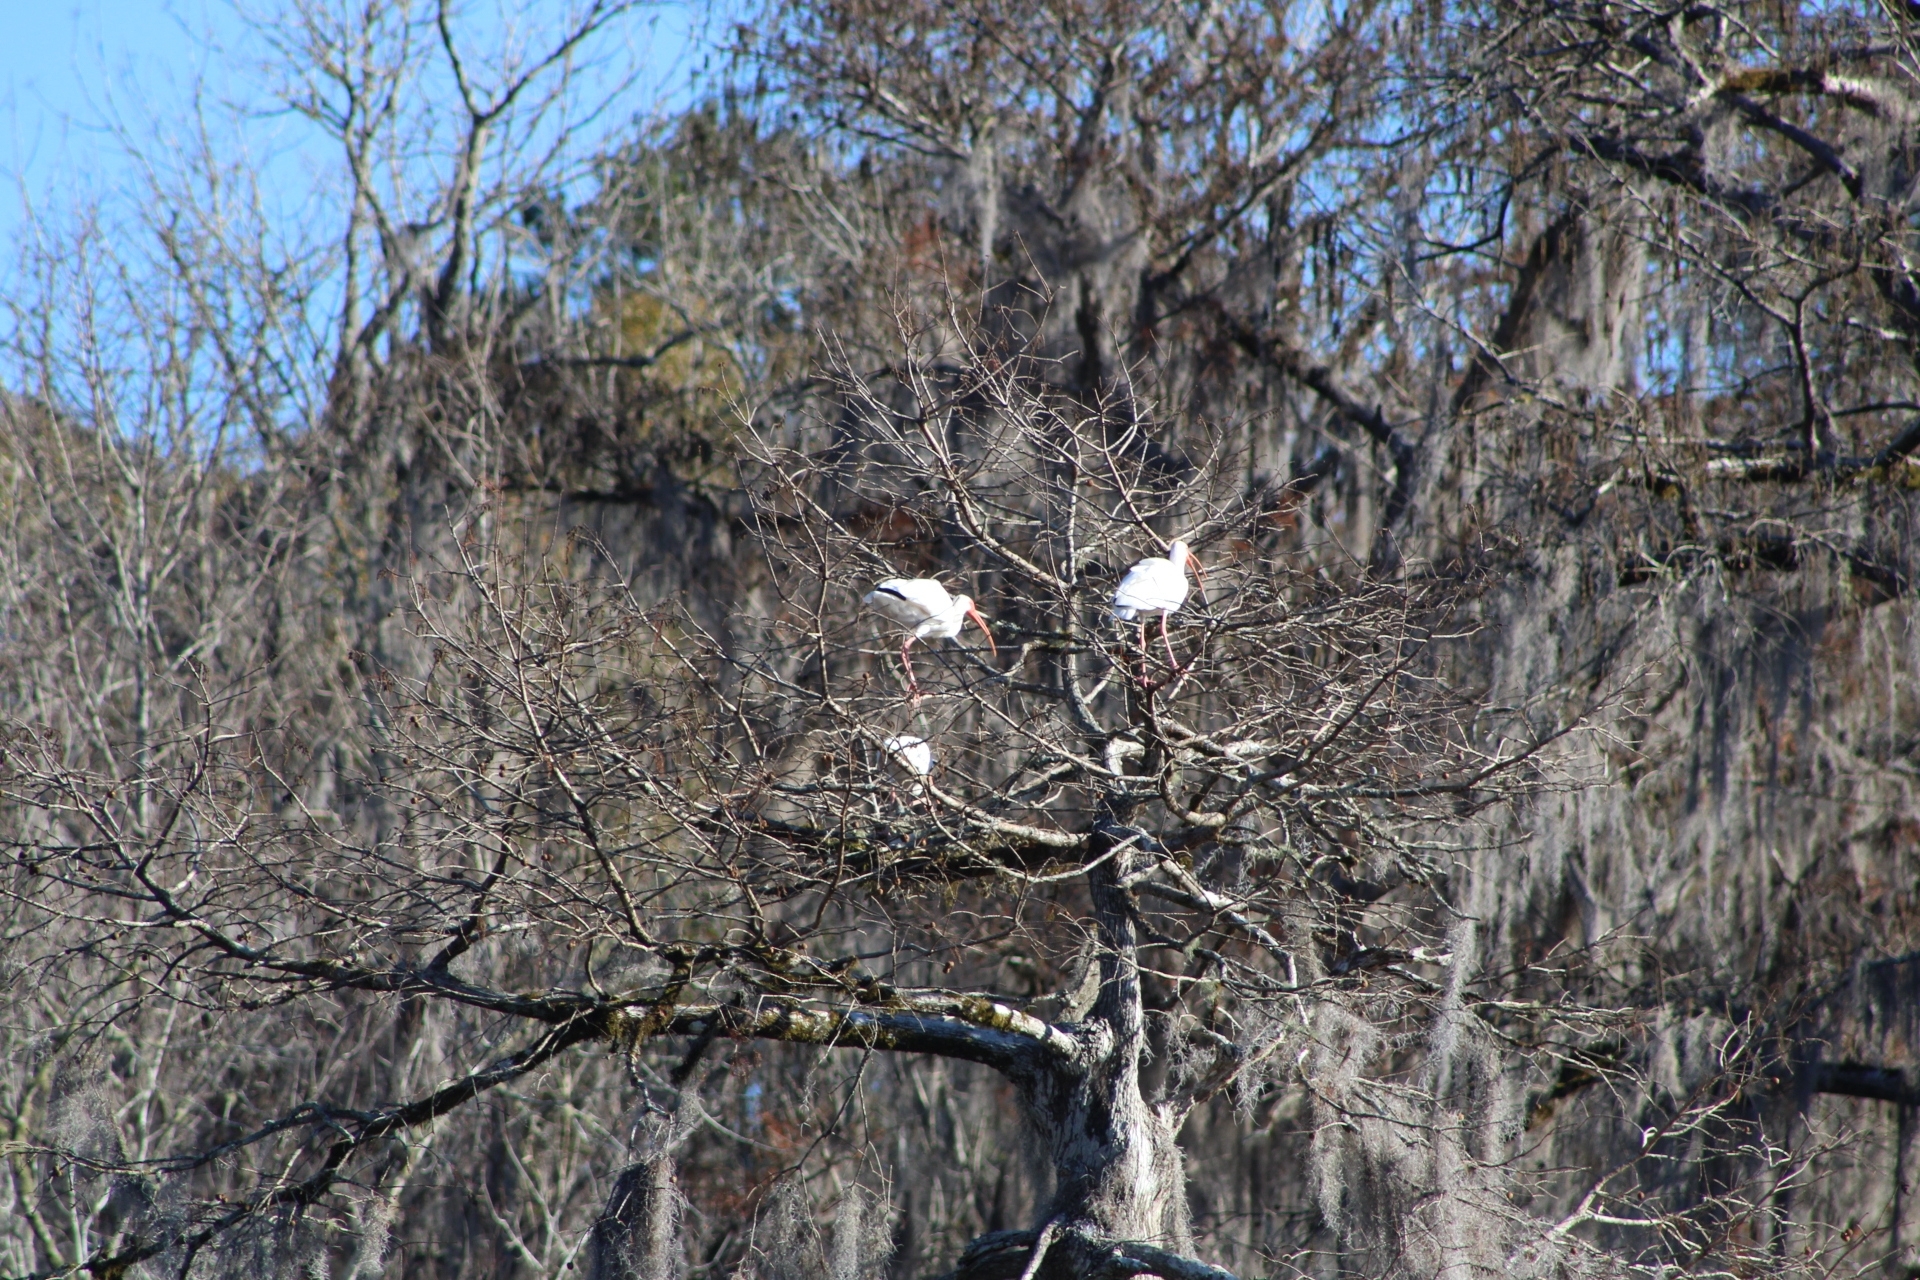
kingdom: Animalia
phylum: Chordata
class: Aves
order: Pelecaniformes
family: Threskiornithidae
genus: Eudocimus
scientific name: Eudocimus albus
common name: White ibis
